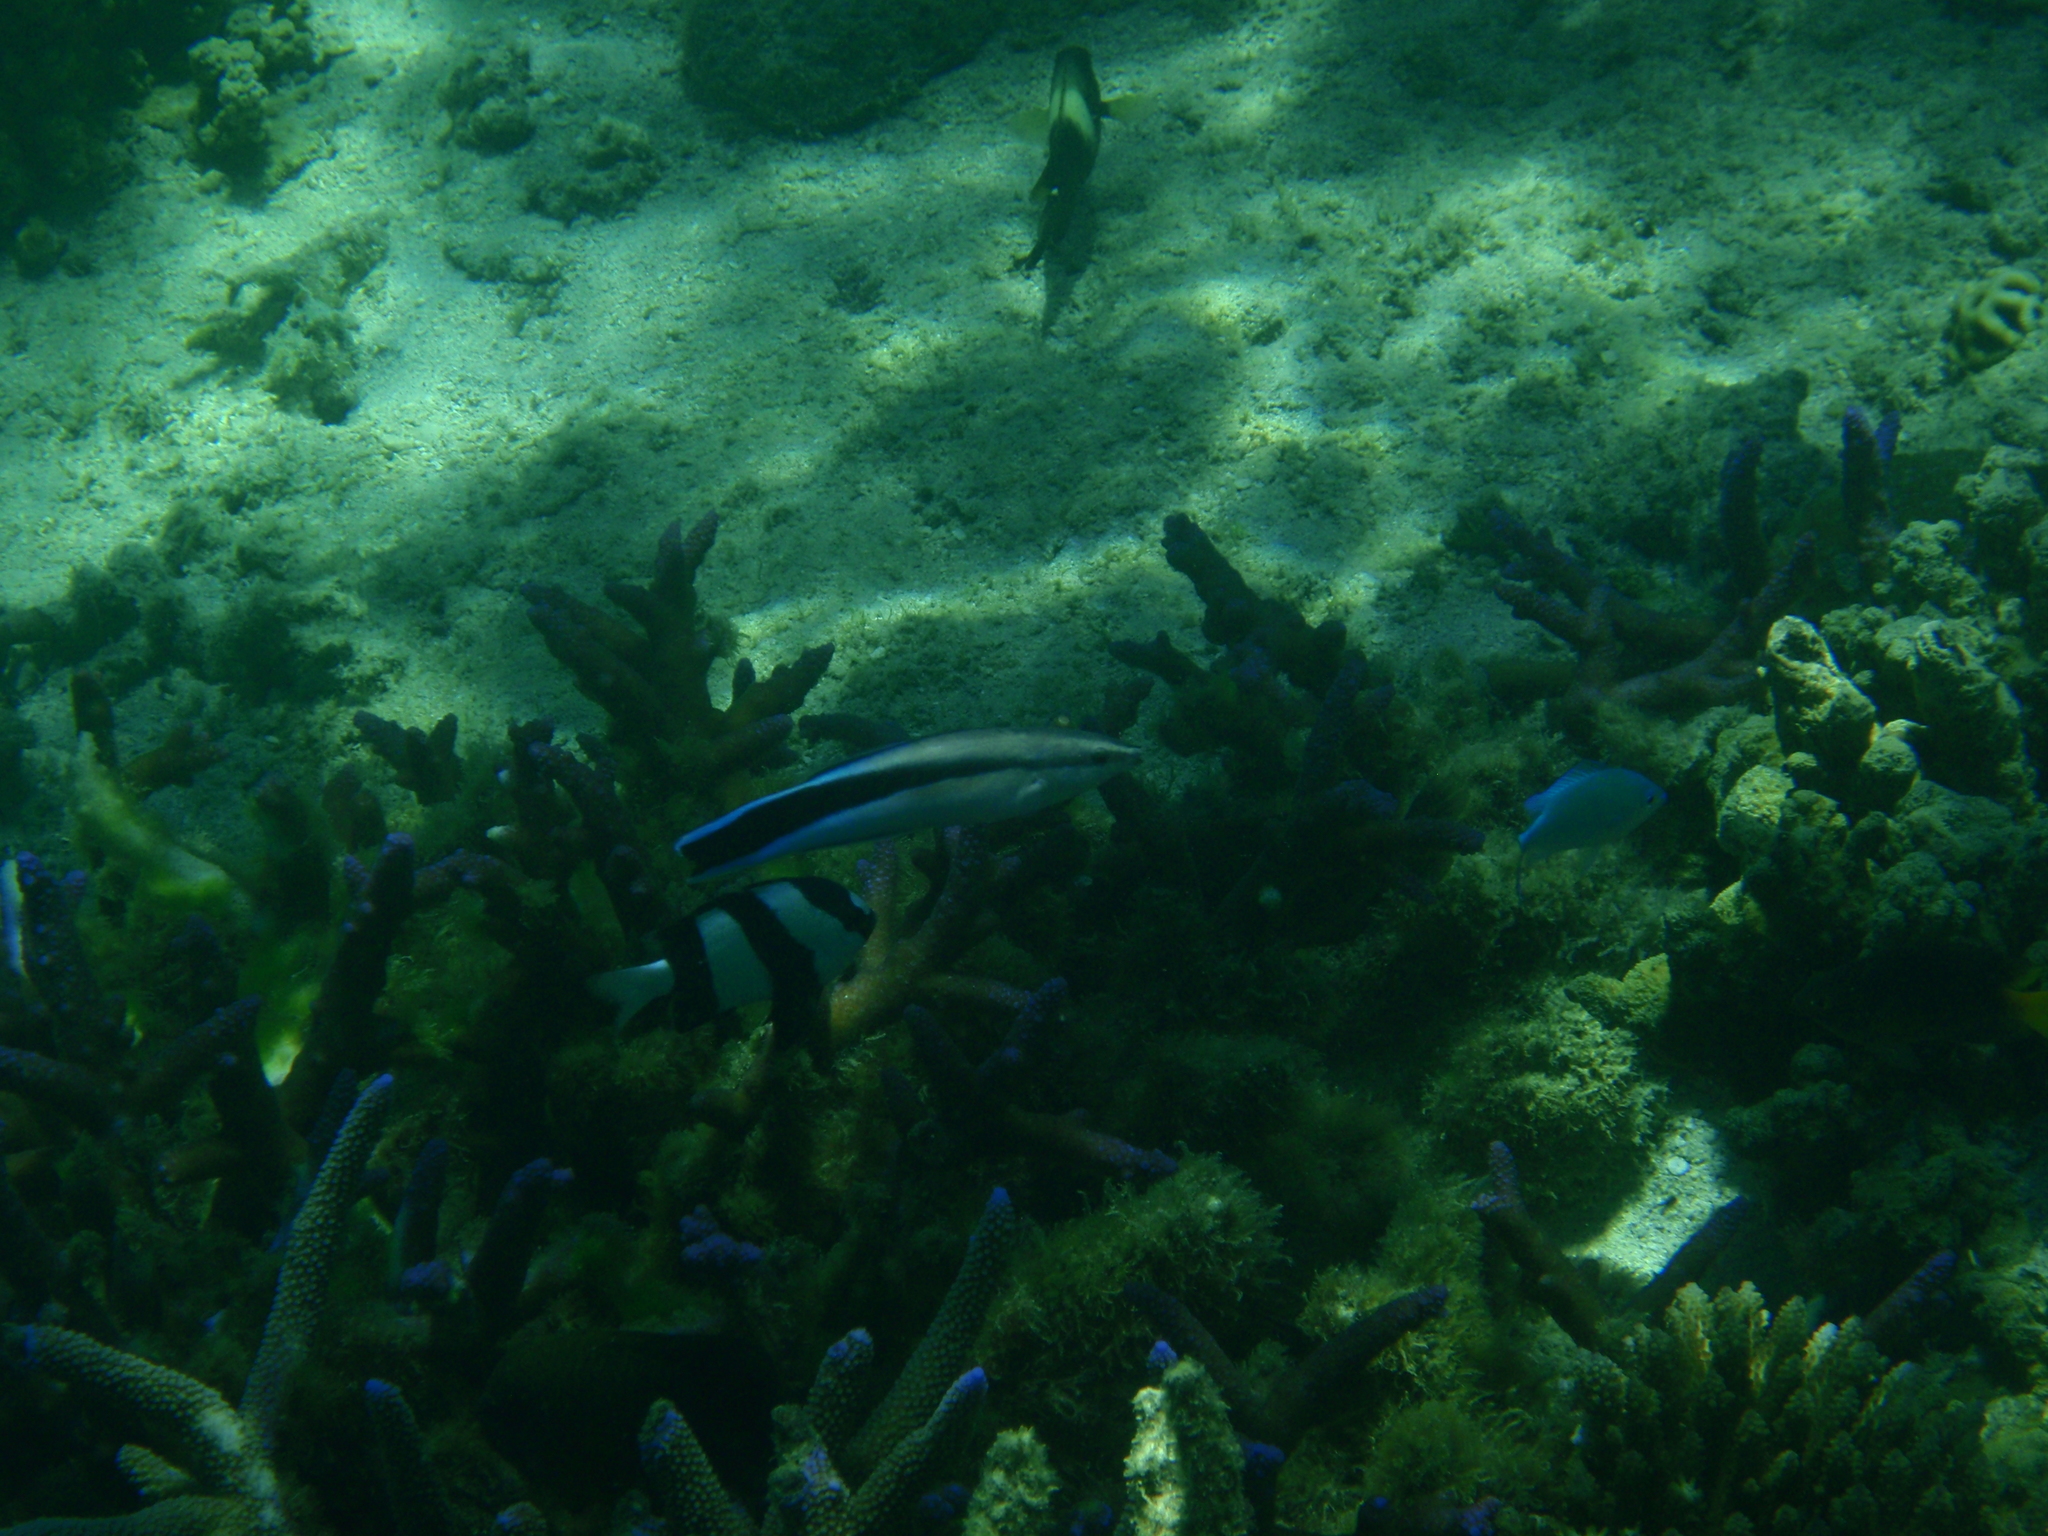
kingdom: Animalia
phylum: Chordata
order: Perciformes
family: Labridae
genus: Labroides
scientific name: Labroides dimidiatus
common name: Blue diesel wrasse
